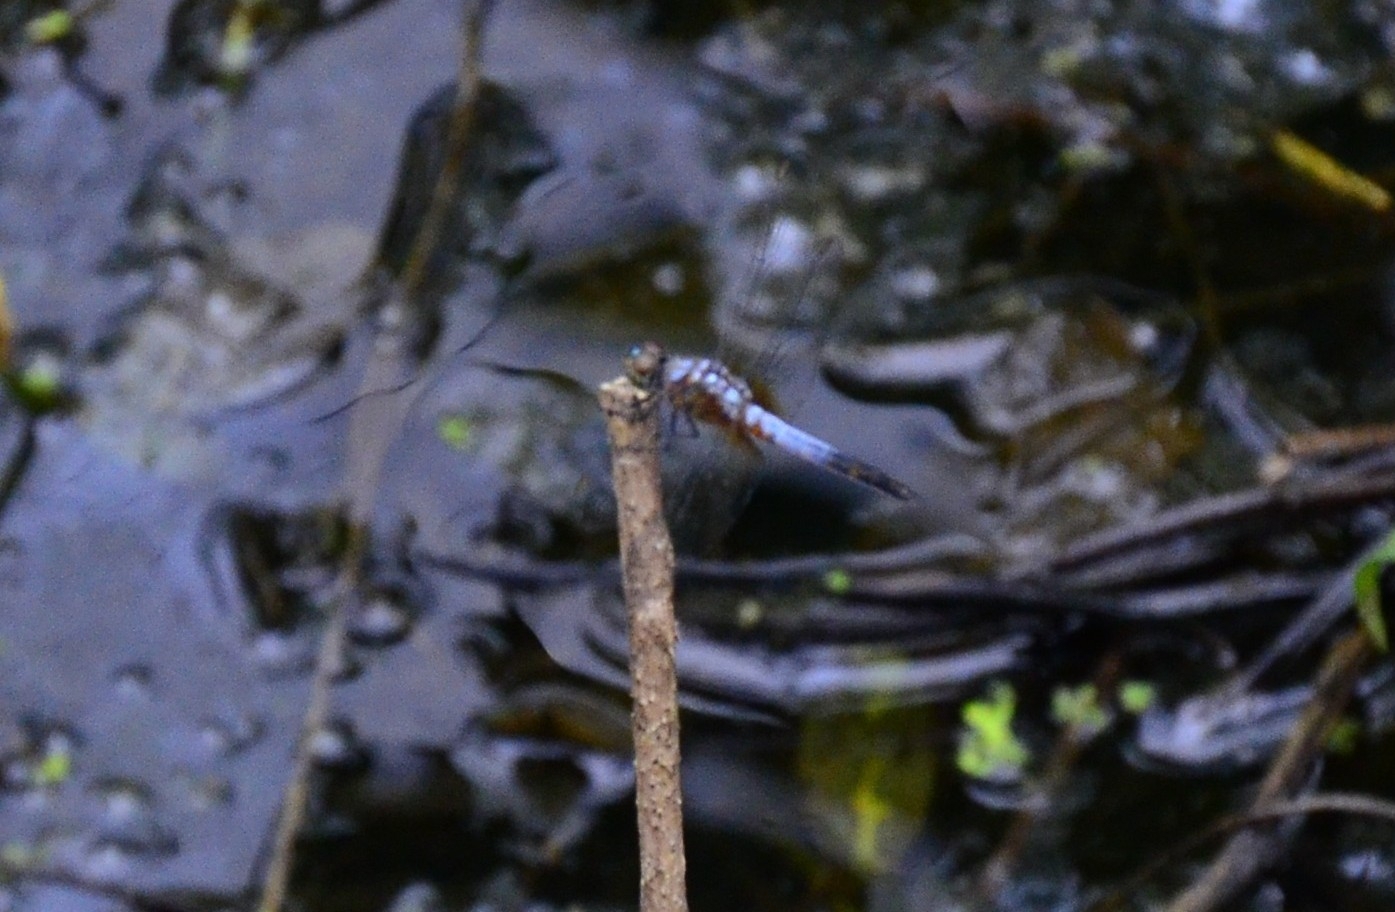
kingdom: Animalia
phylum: Arthropoda
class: Insecta
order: Odonata
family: Libellulidae
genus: Brachydiplax
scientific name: Brachydiplax chalybea
